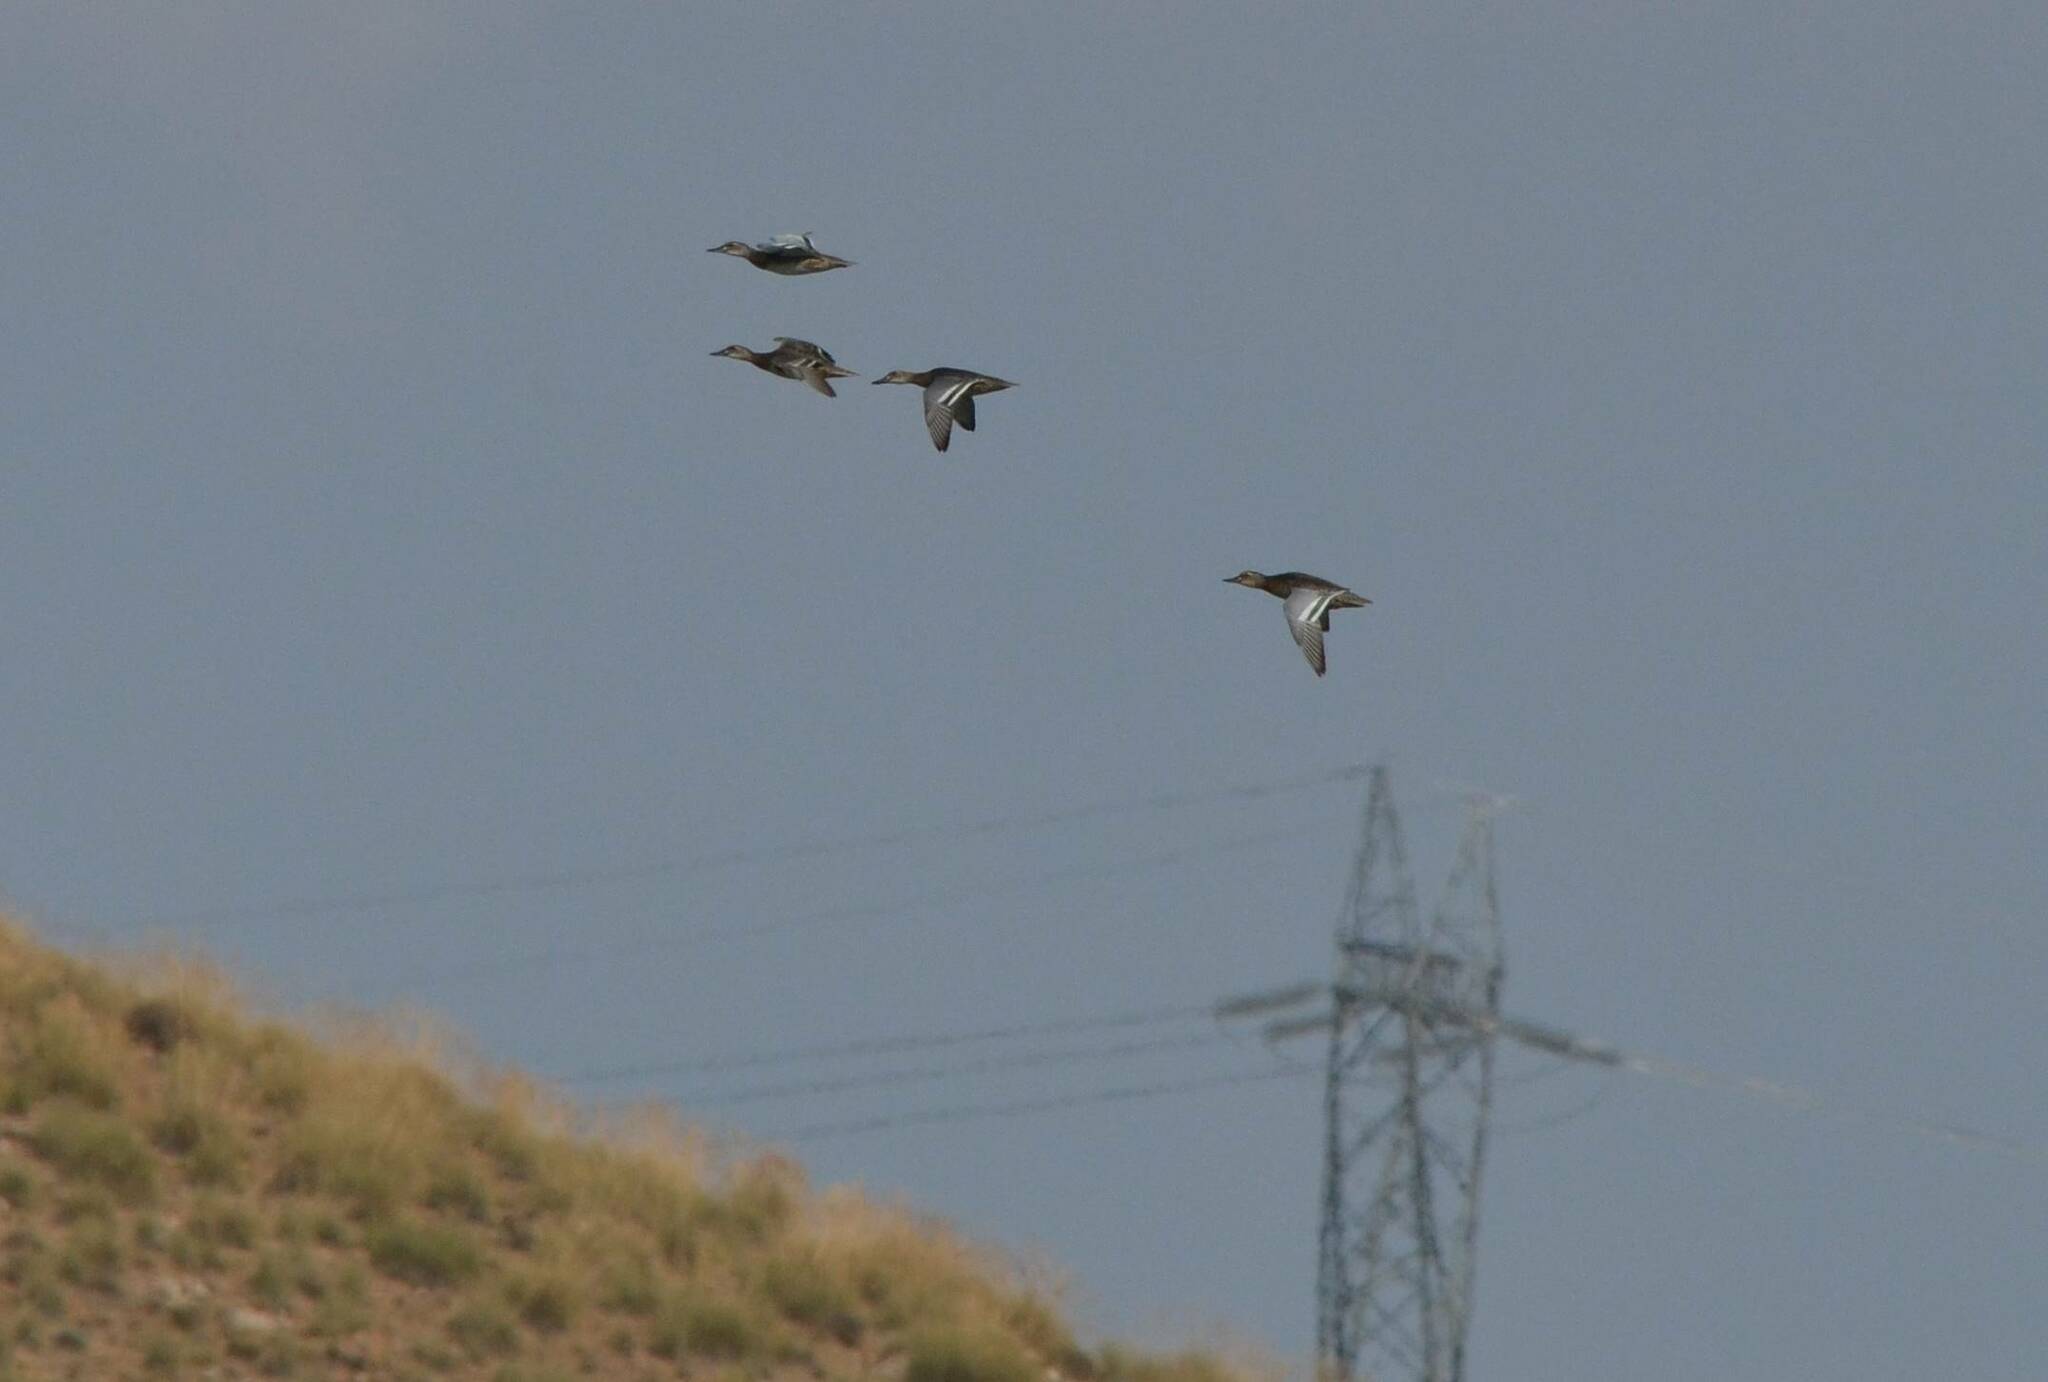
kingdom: Animalia
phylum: Chordata
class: Aves
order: Anseriformes
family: Anatidae
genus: Spatula
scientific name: Spatula querquedula
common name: Garganey
